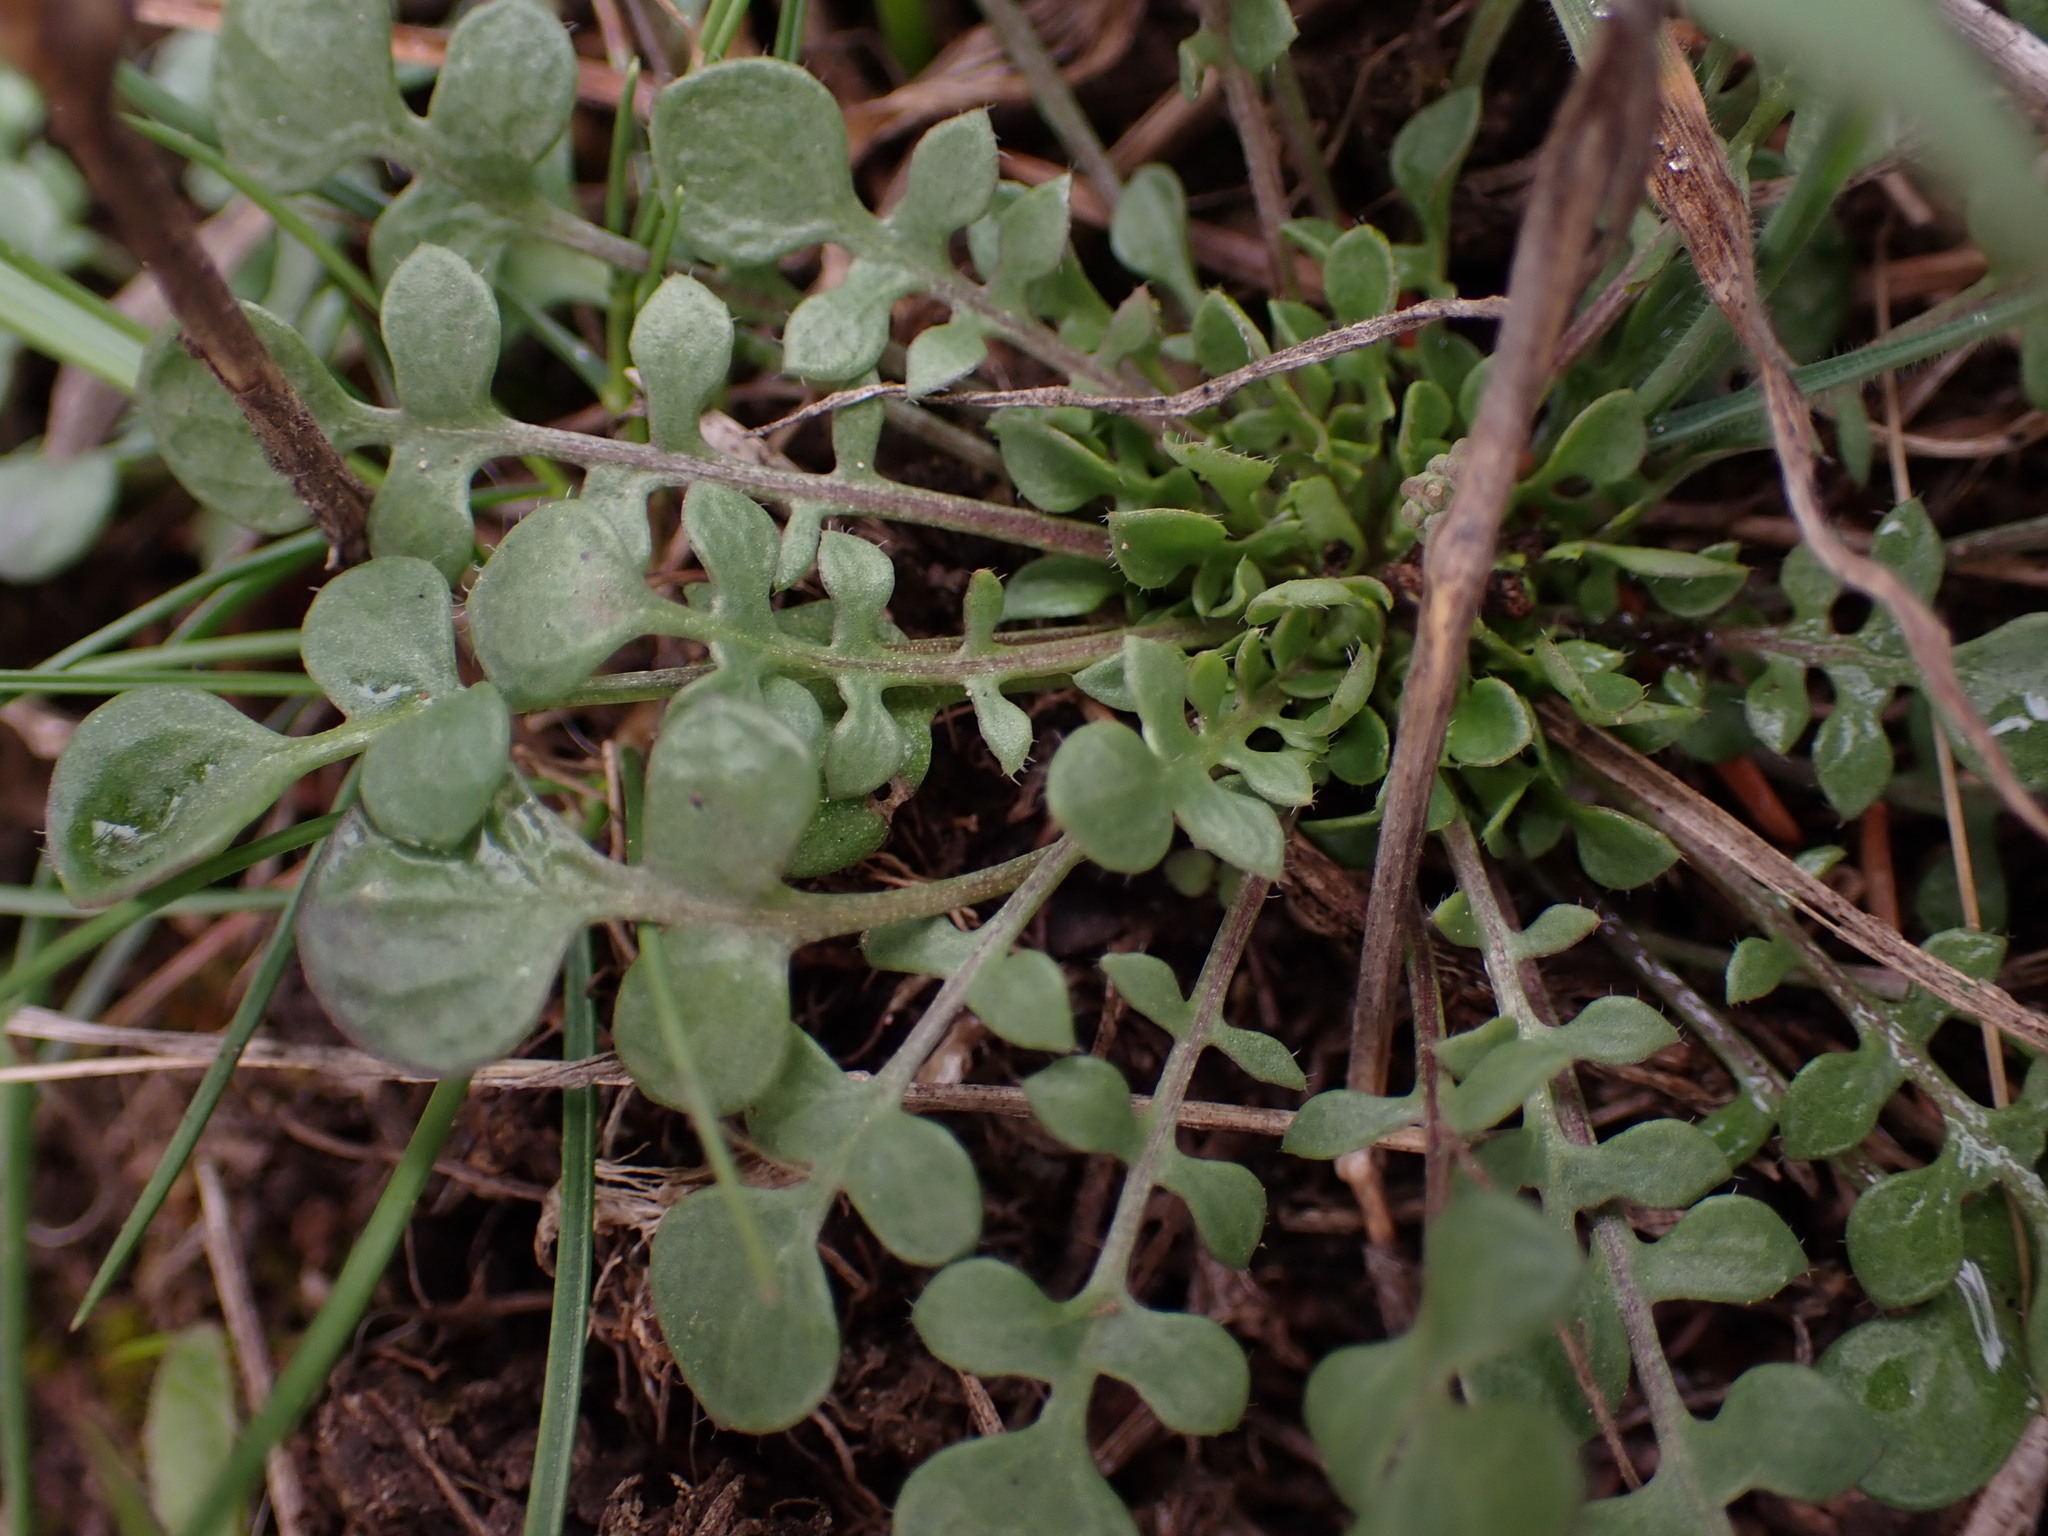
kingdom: Plantae
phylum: Tracheophyta
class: Magnoliopsida
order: Brassicales
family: Brassicaceae
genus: Teesdalia
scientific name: Teesdalia nudicaulis
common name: Shepherd's cress
